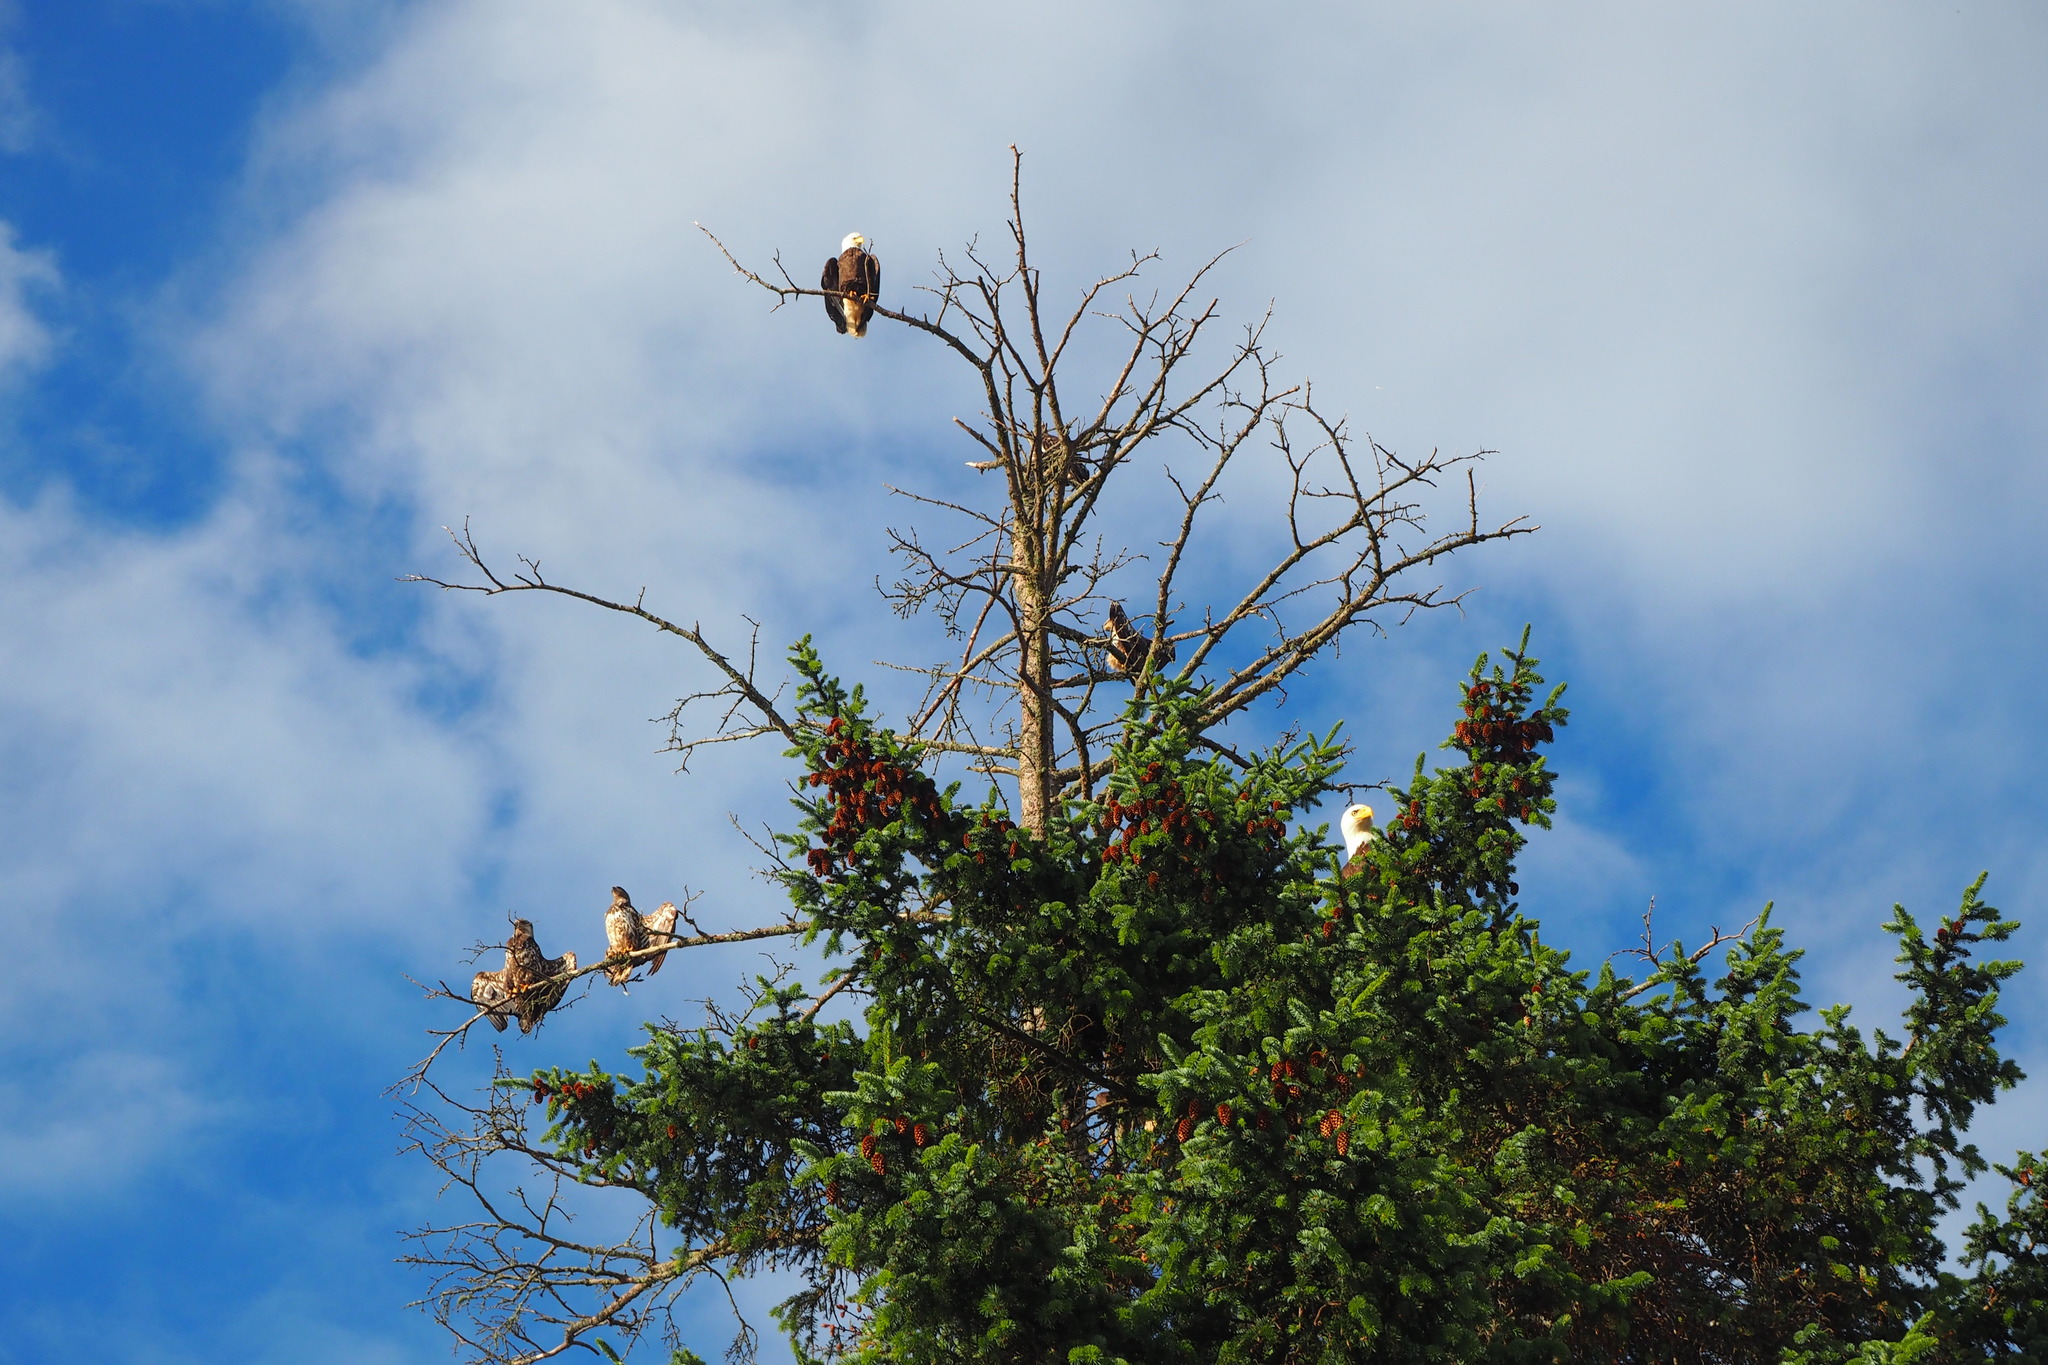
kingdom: Animalia
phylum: Chordata
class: Aves
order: Accipitriformes
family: Accipitridae
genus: Haliaeetus
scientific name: Haliaeetus leucocephalus
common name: Bald eagle
